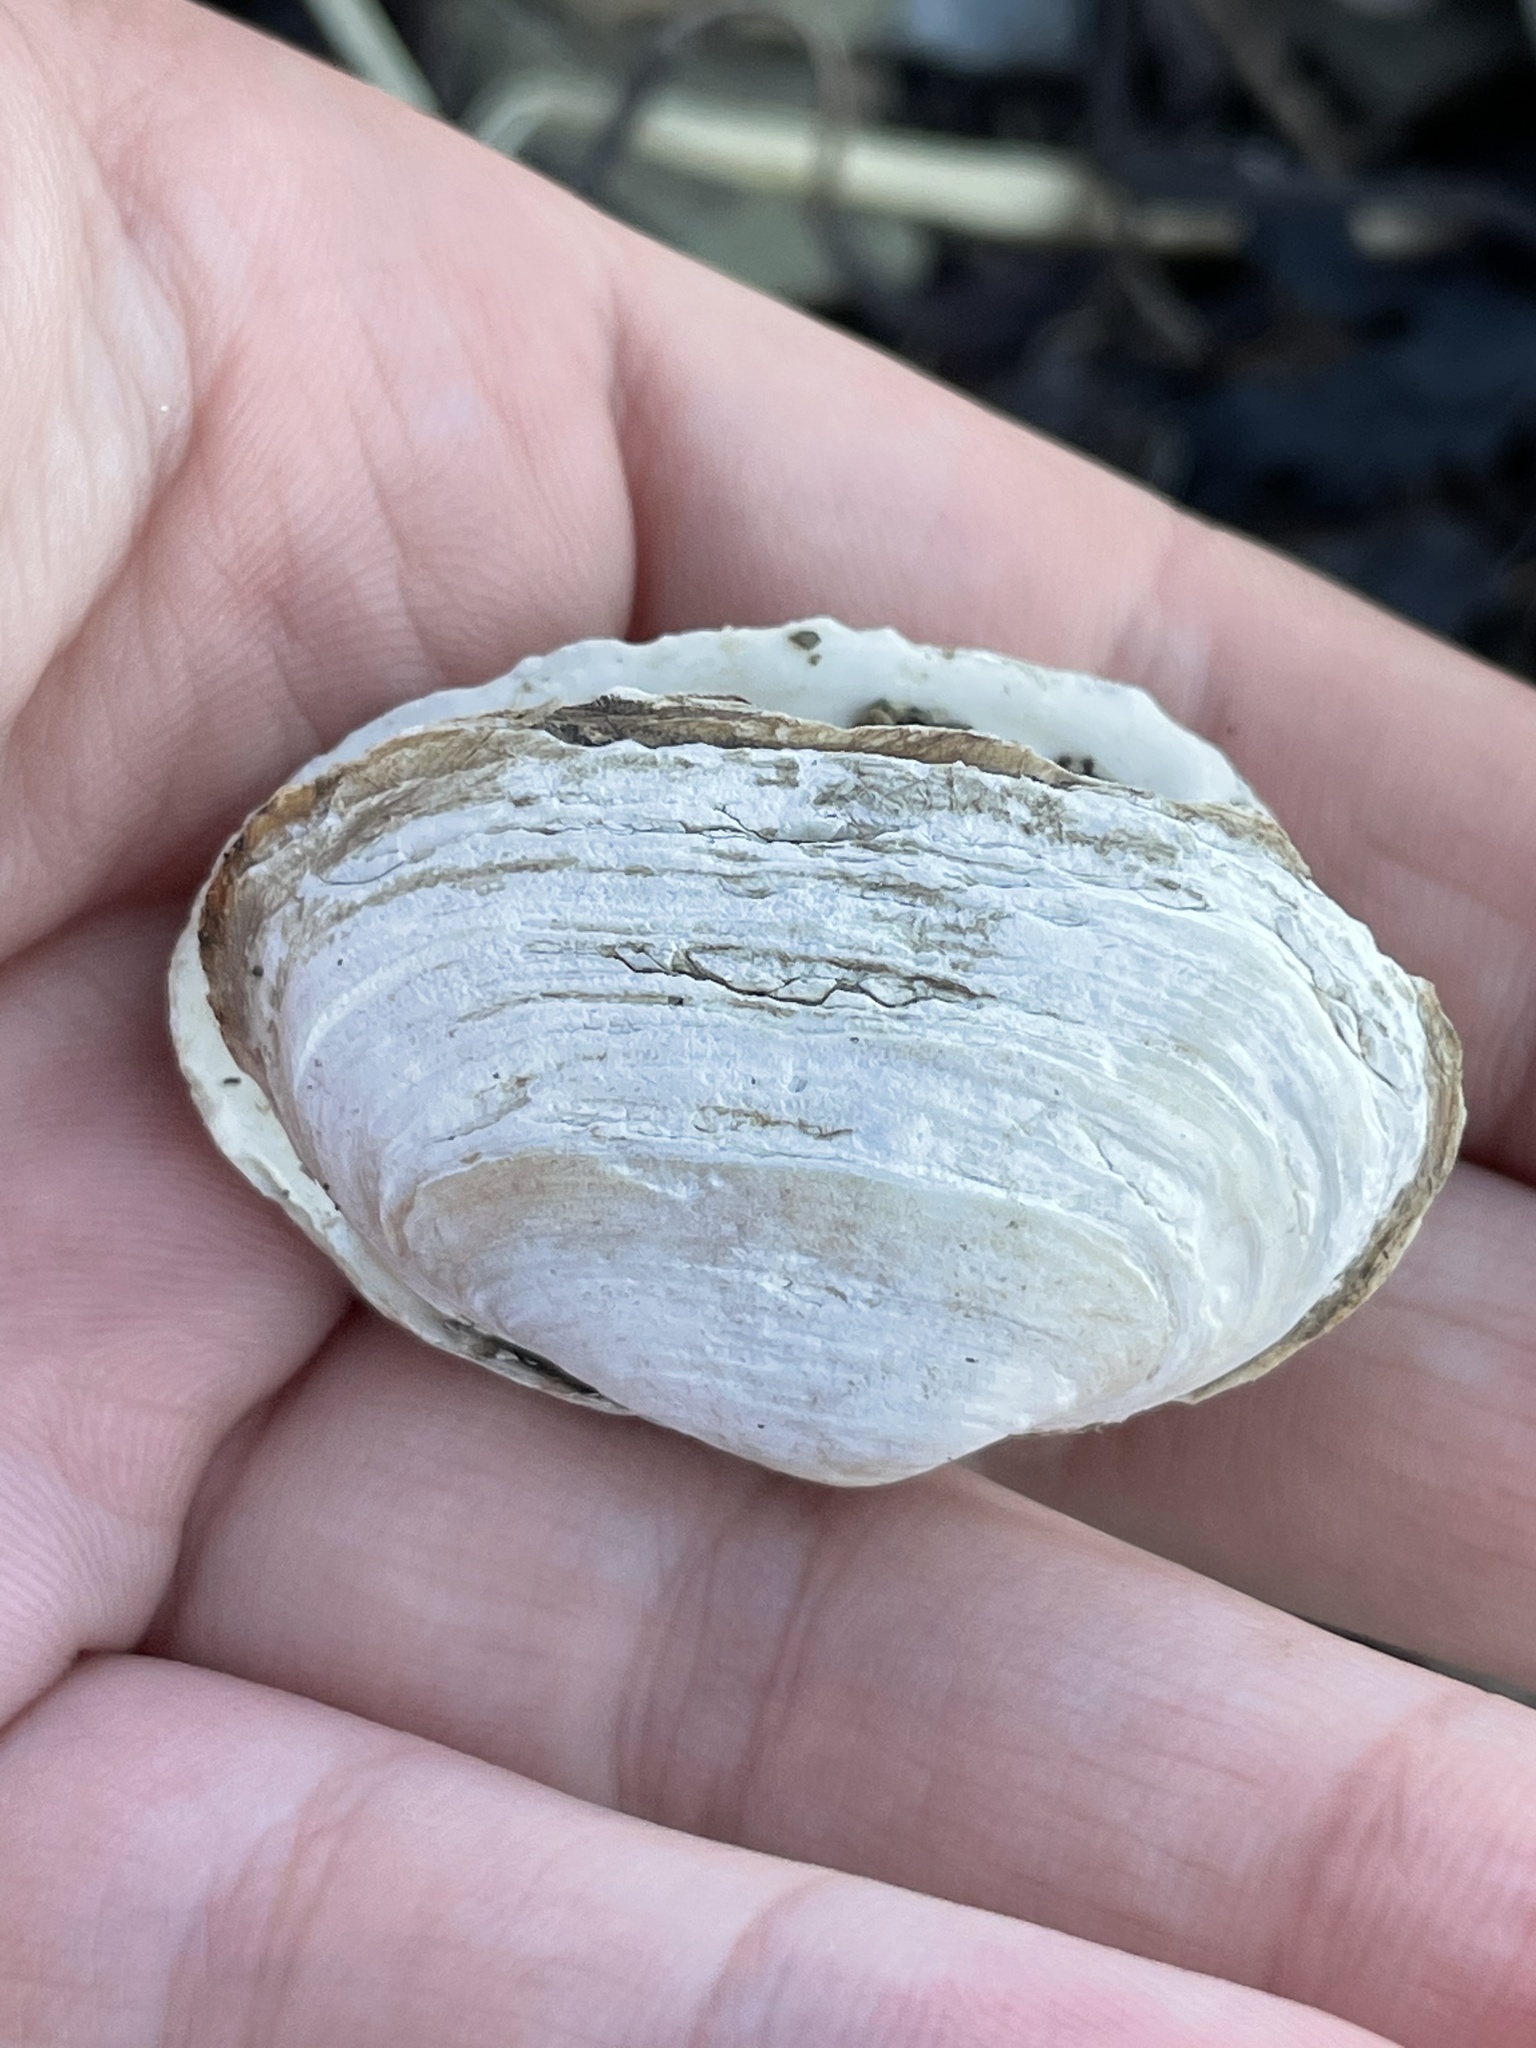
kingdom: Animalia
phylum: Mollusca
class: Bivalvia
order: Myida
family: Myidae
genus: Mya
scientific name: Mya arenaria
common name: Soft-shelled clam
